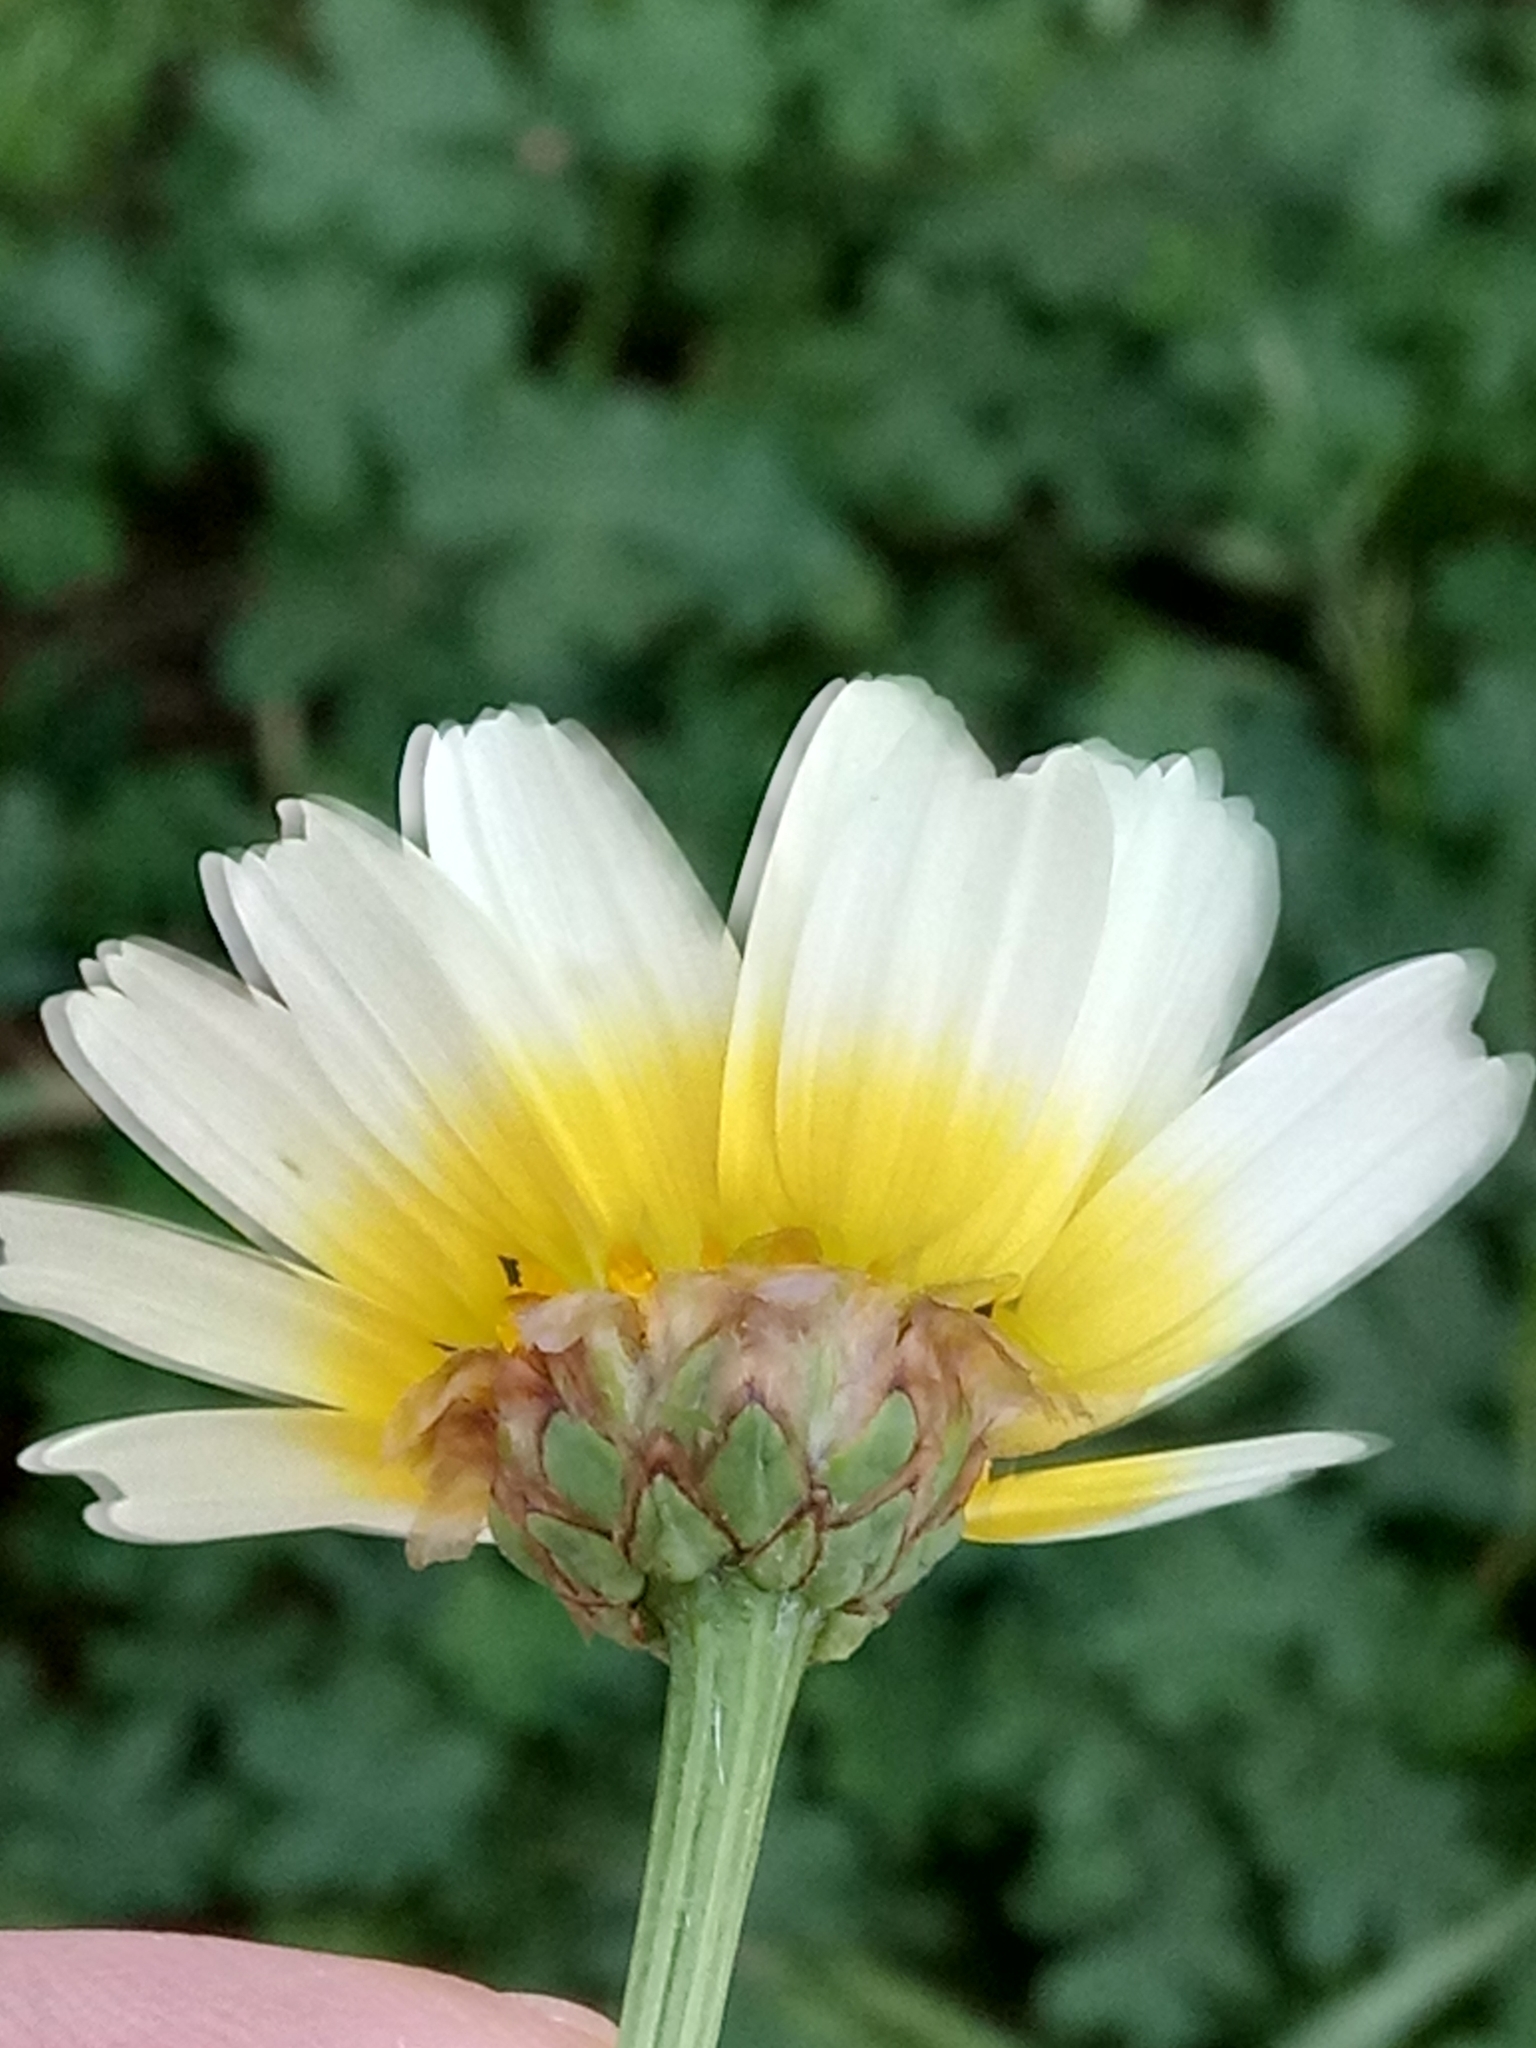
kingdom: Plantae
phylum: Tracheophyta
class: Magnoliopsida
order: Asterales
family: Asteraceae
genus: Glebionis
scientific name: Glebionis coronaria
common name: Crowndaisy
